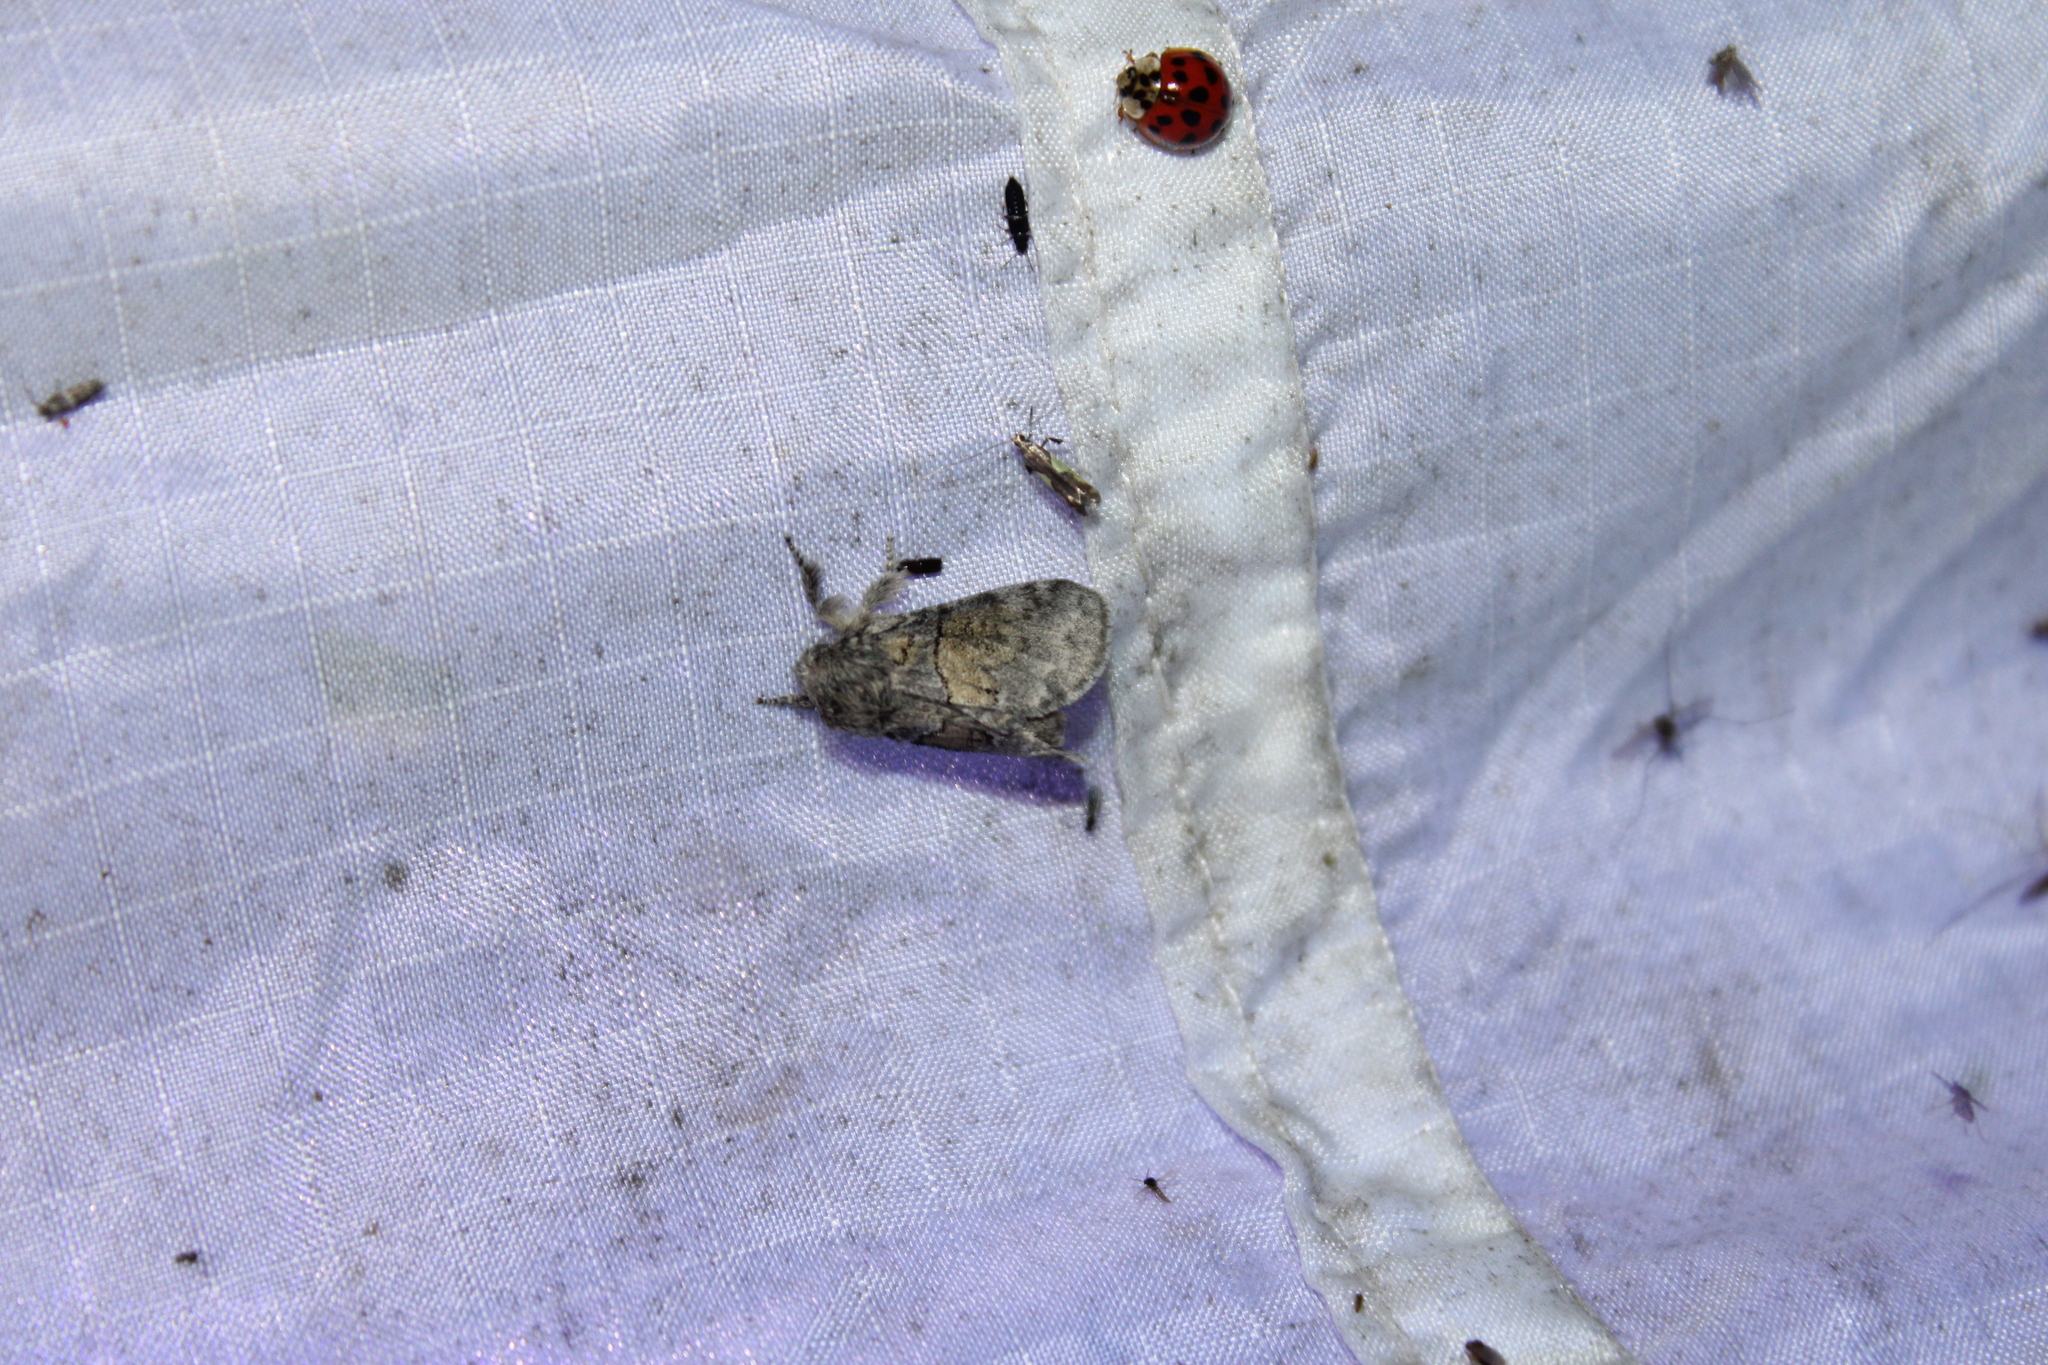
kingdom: Animalia
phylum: Arthropoda
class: Insecta
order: Lepidoptera
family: Notodontidae
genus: Gluphisia
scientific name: Gluphisia septentrionis
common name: Common gluphisia
